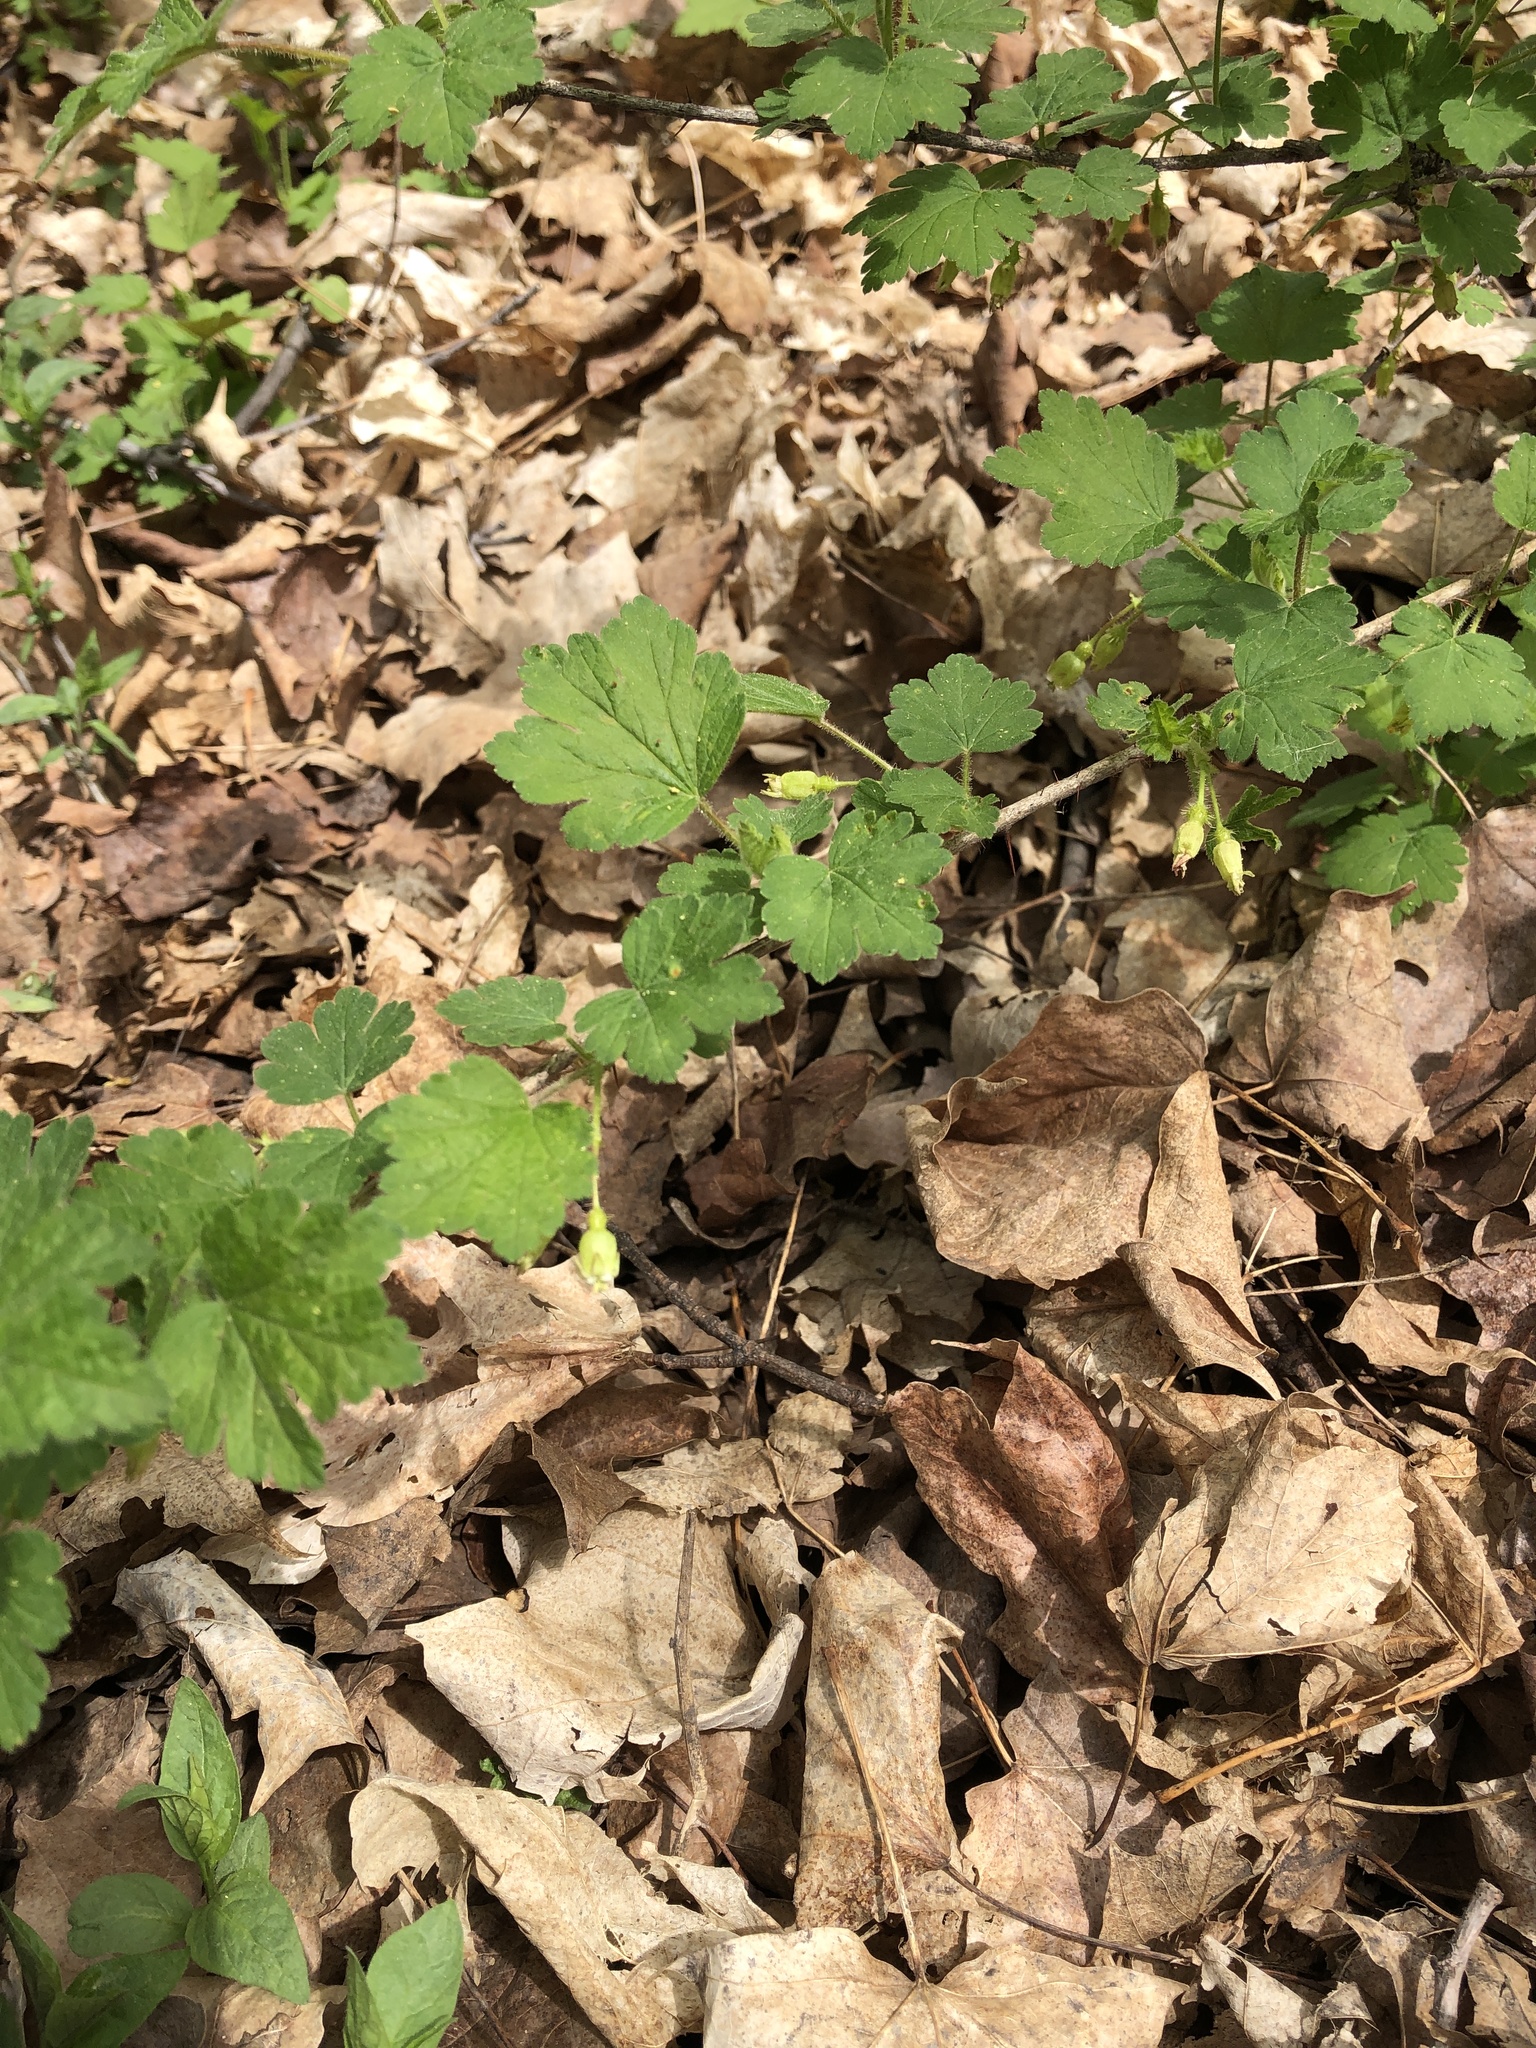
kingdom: Plantae
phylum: Tracheophyta
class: Magnoliopsida
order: Saxifragales
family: Grossulariaceae
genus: Ribes
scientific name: Ribes cynosbati
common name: American gooseberry
